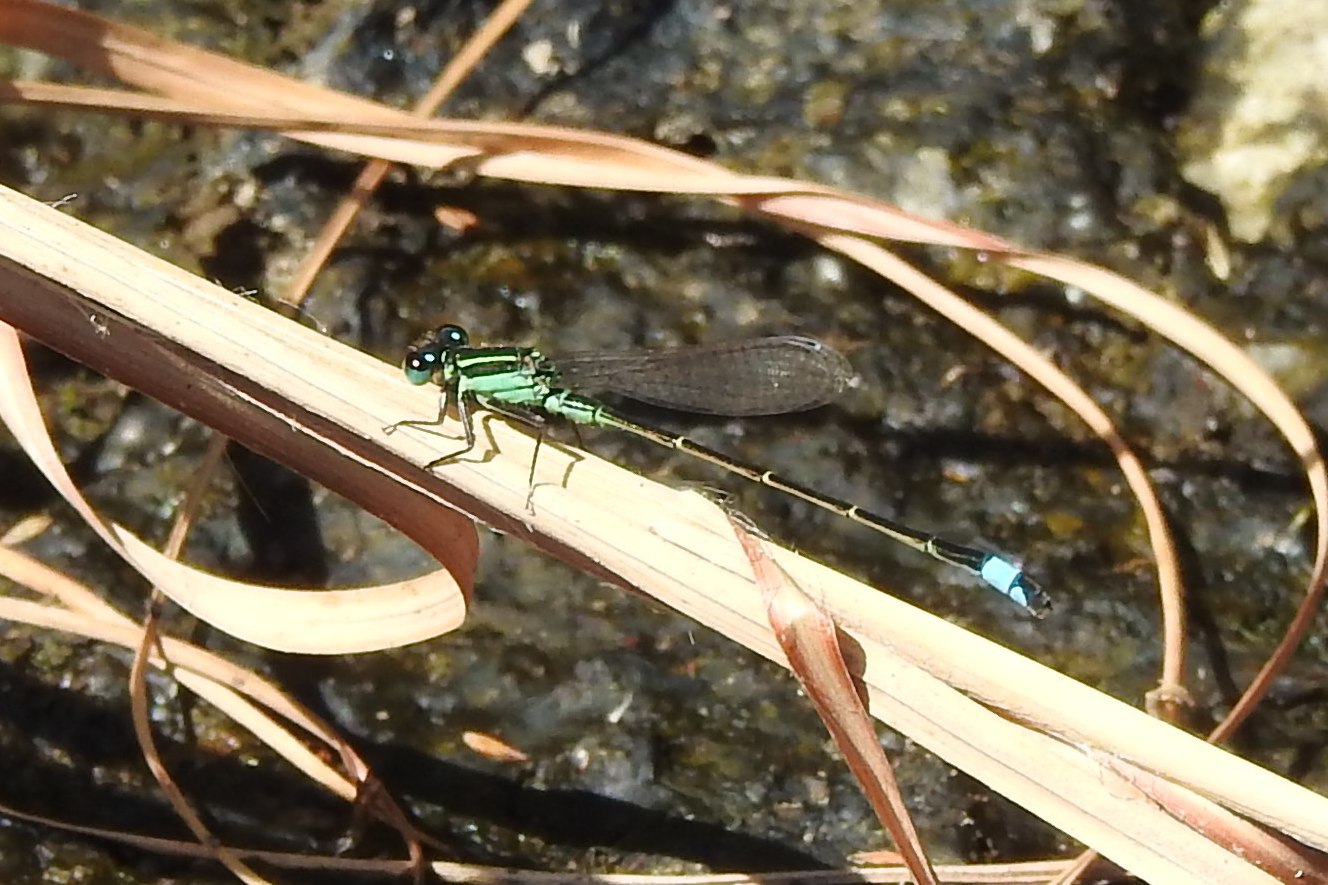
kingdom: Animalia
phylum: Arthropoda
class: Insecta
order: Odonata
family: Coenagrionidae
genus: Ischnura
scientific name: Ischnura ramburii
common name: Rambur's forktail
